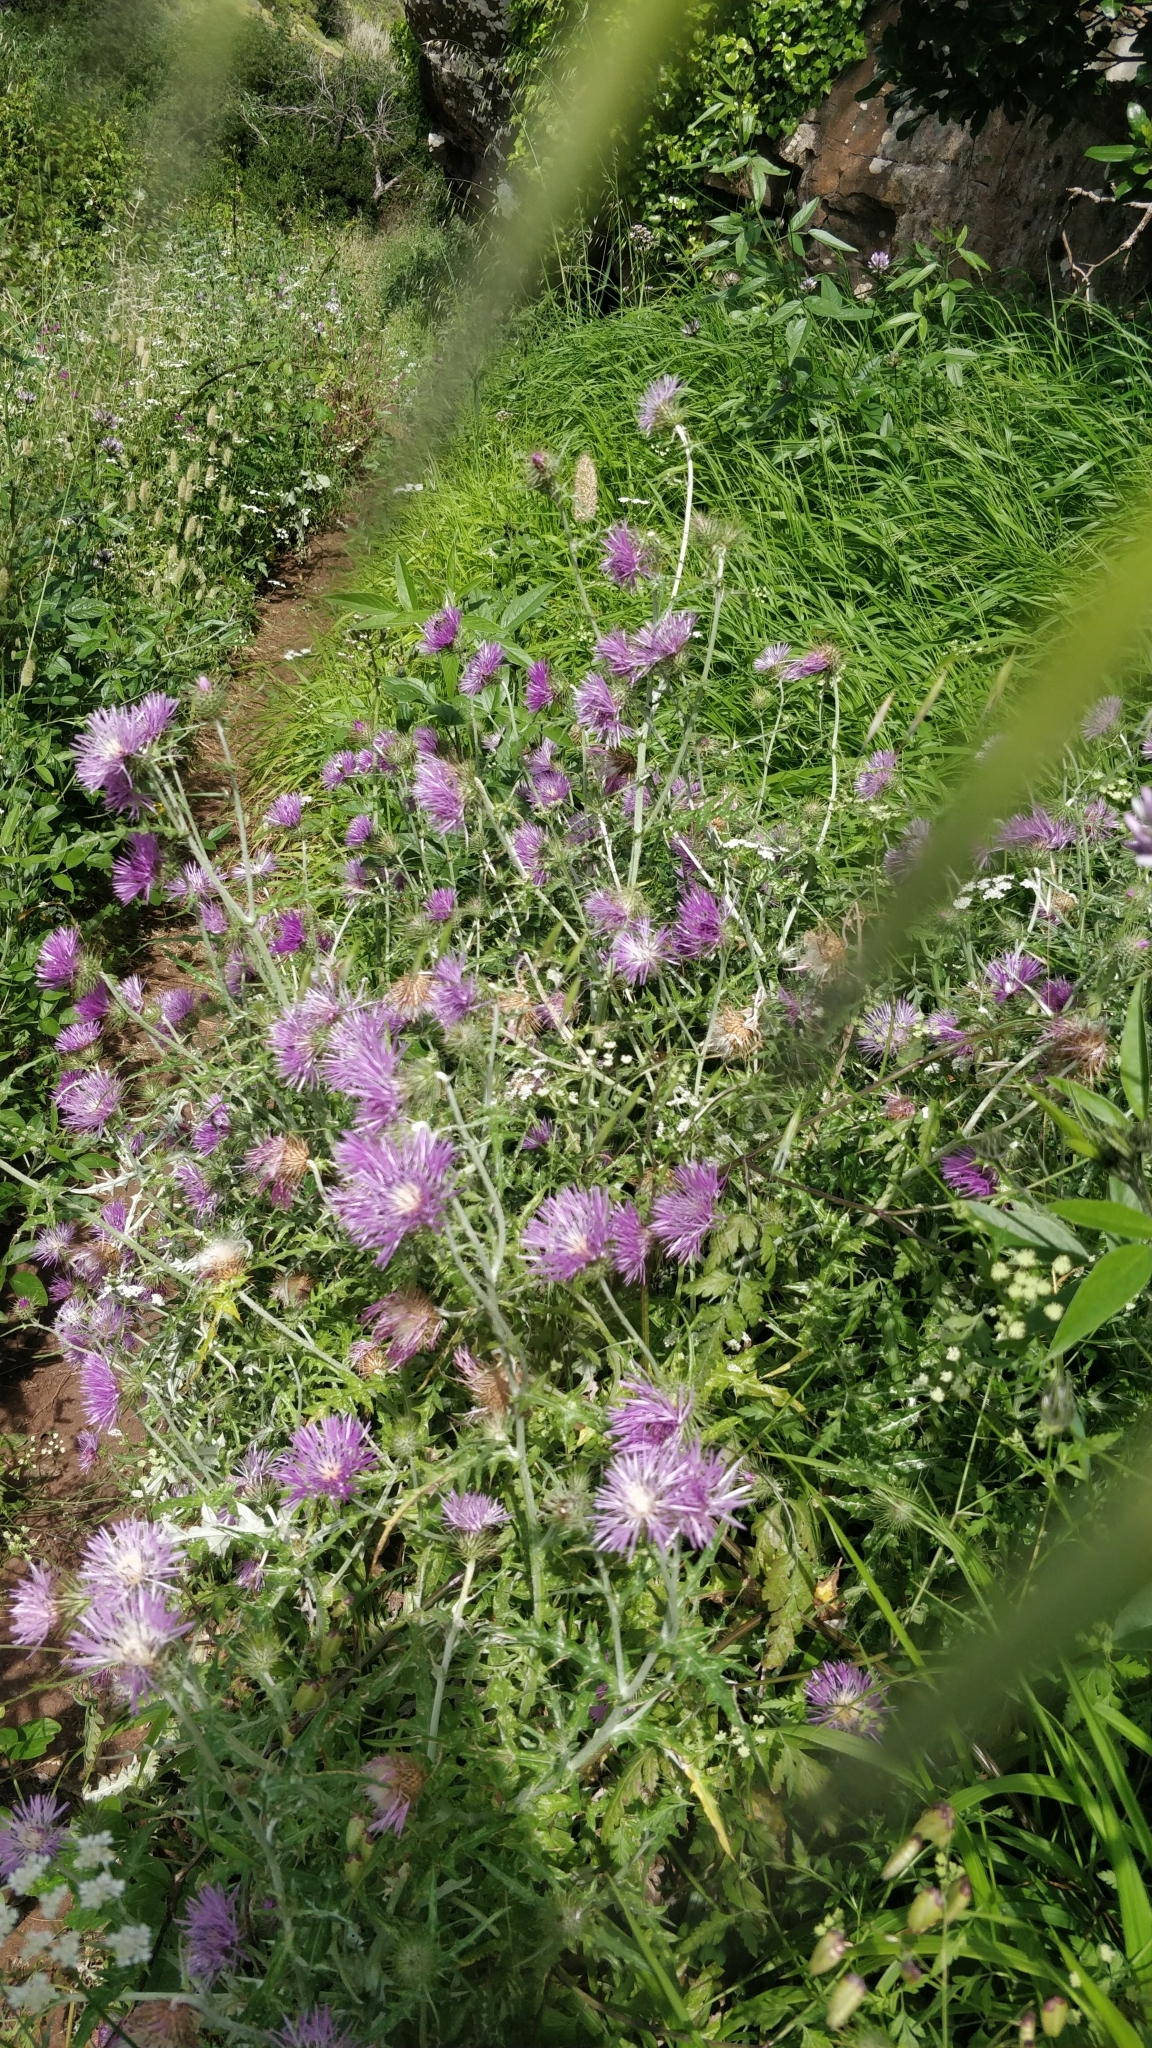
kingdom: Plantae
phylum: Tracheophyta
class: Magnoliopsida
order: Asterales
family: Asteraceae
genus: Galactites
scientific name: Galactites tomentosa
